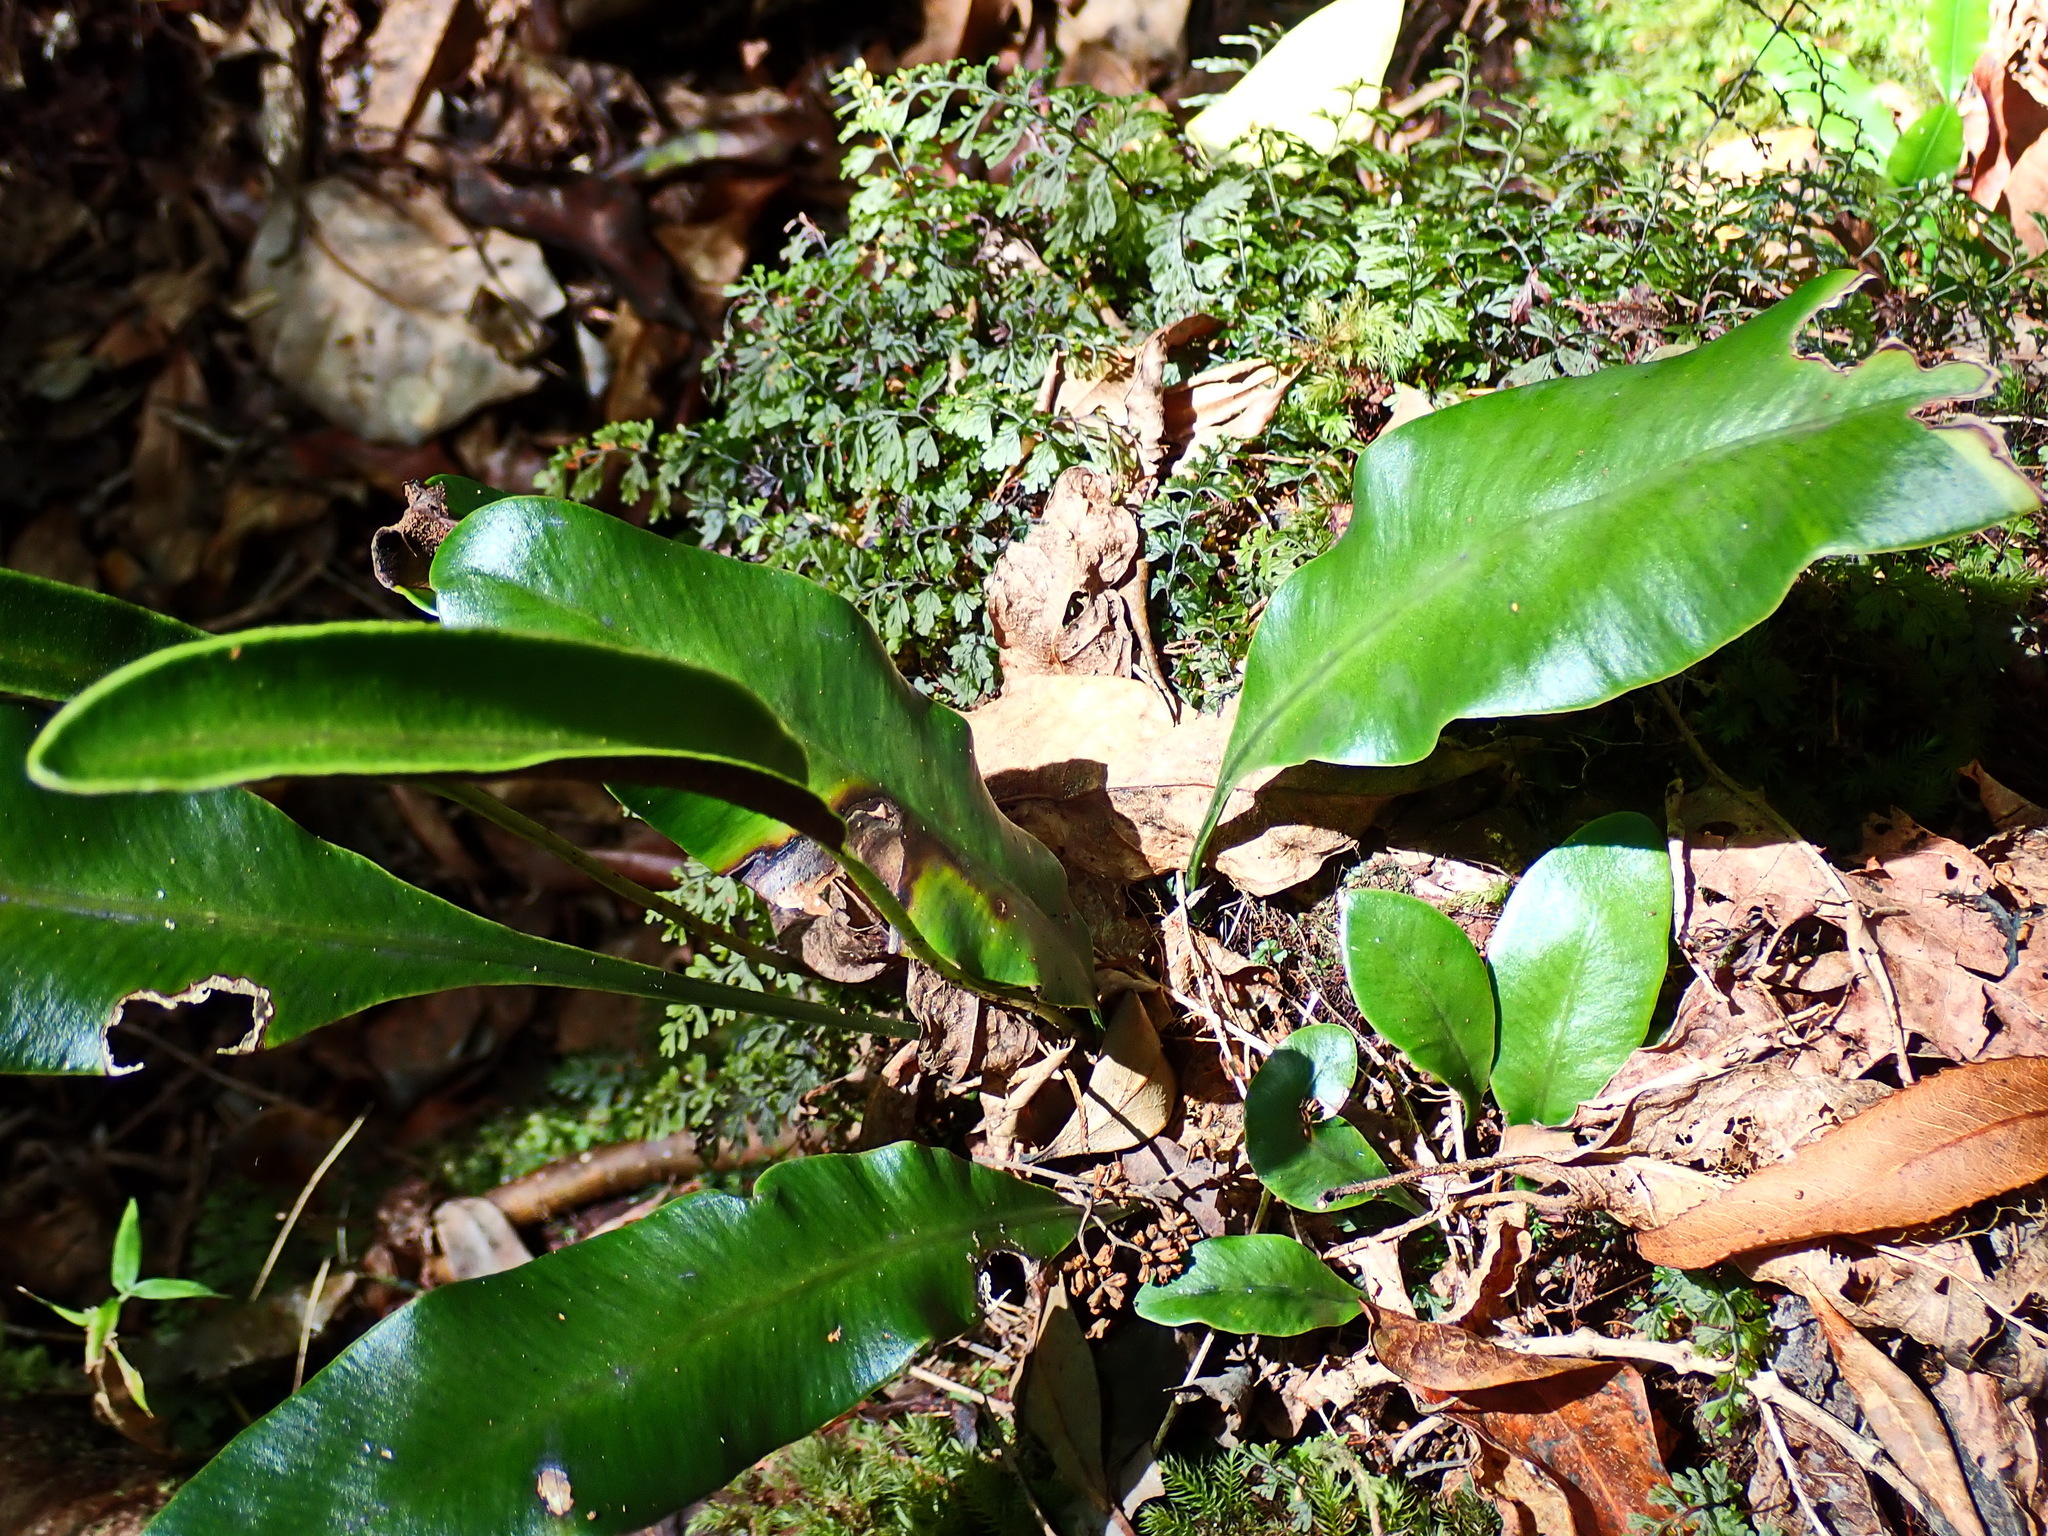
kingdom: Plantae
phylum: Tracheophyta
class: Polypodiopsida
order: Polypodiales
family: Dryopteridaceae
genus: Elaphoglossum
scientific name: Elaphoglossum angustatum
